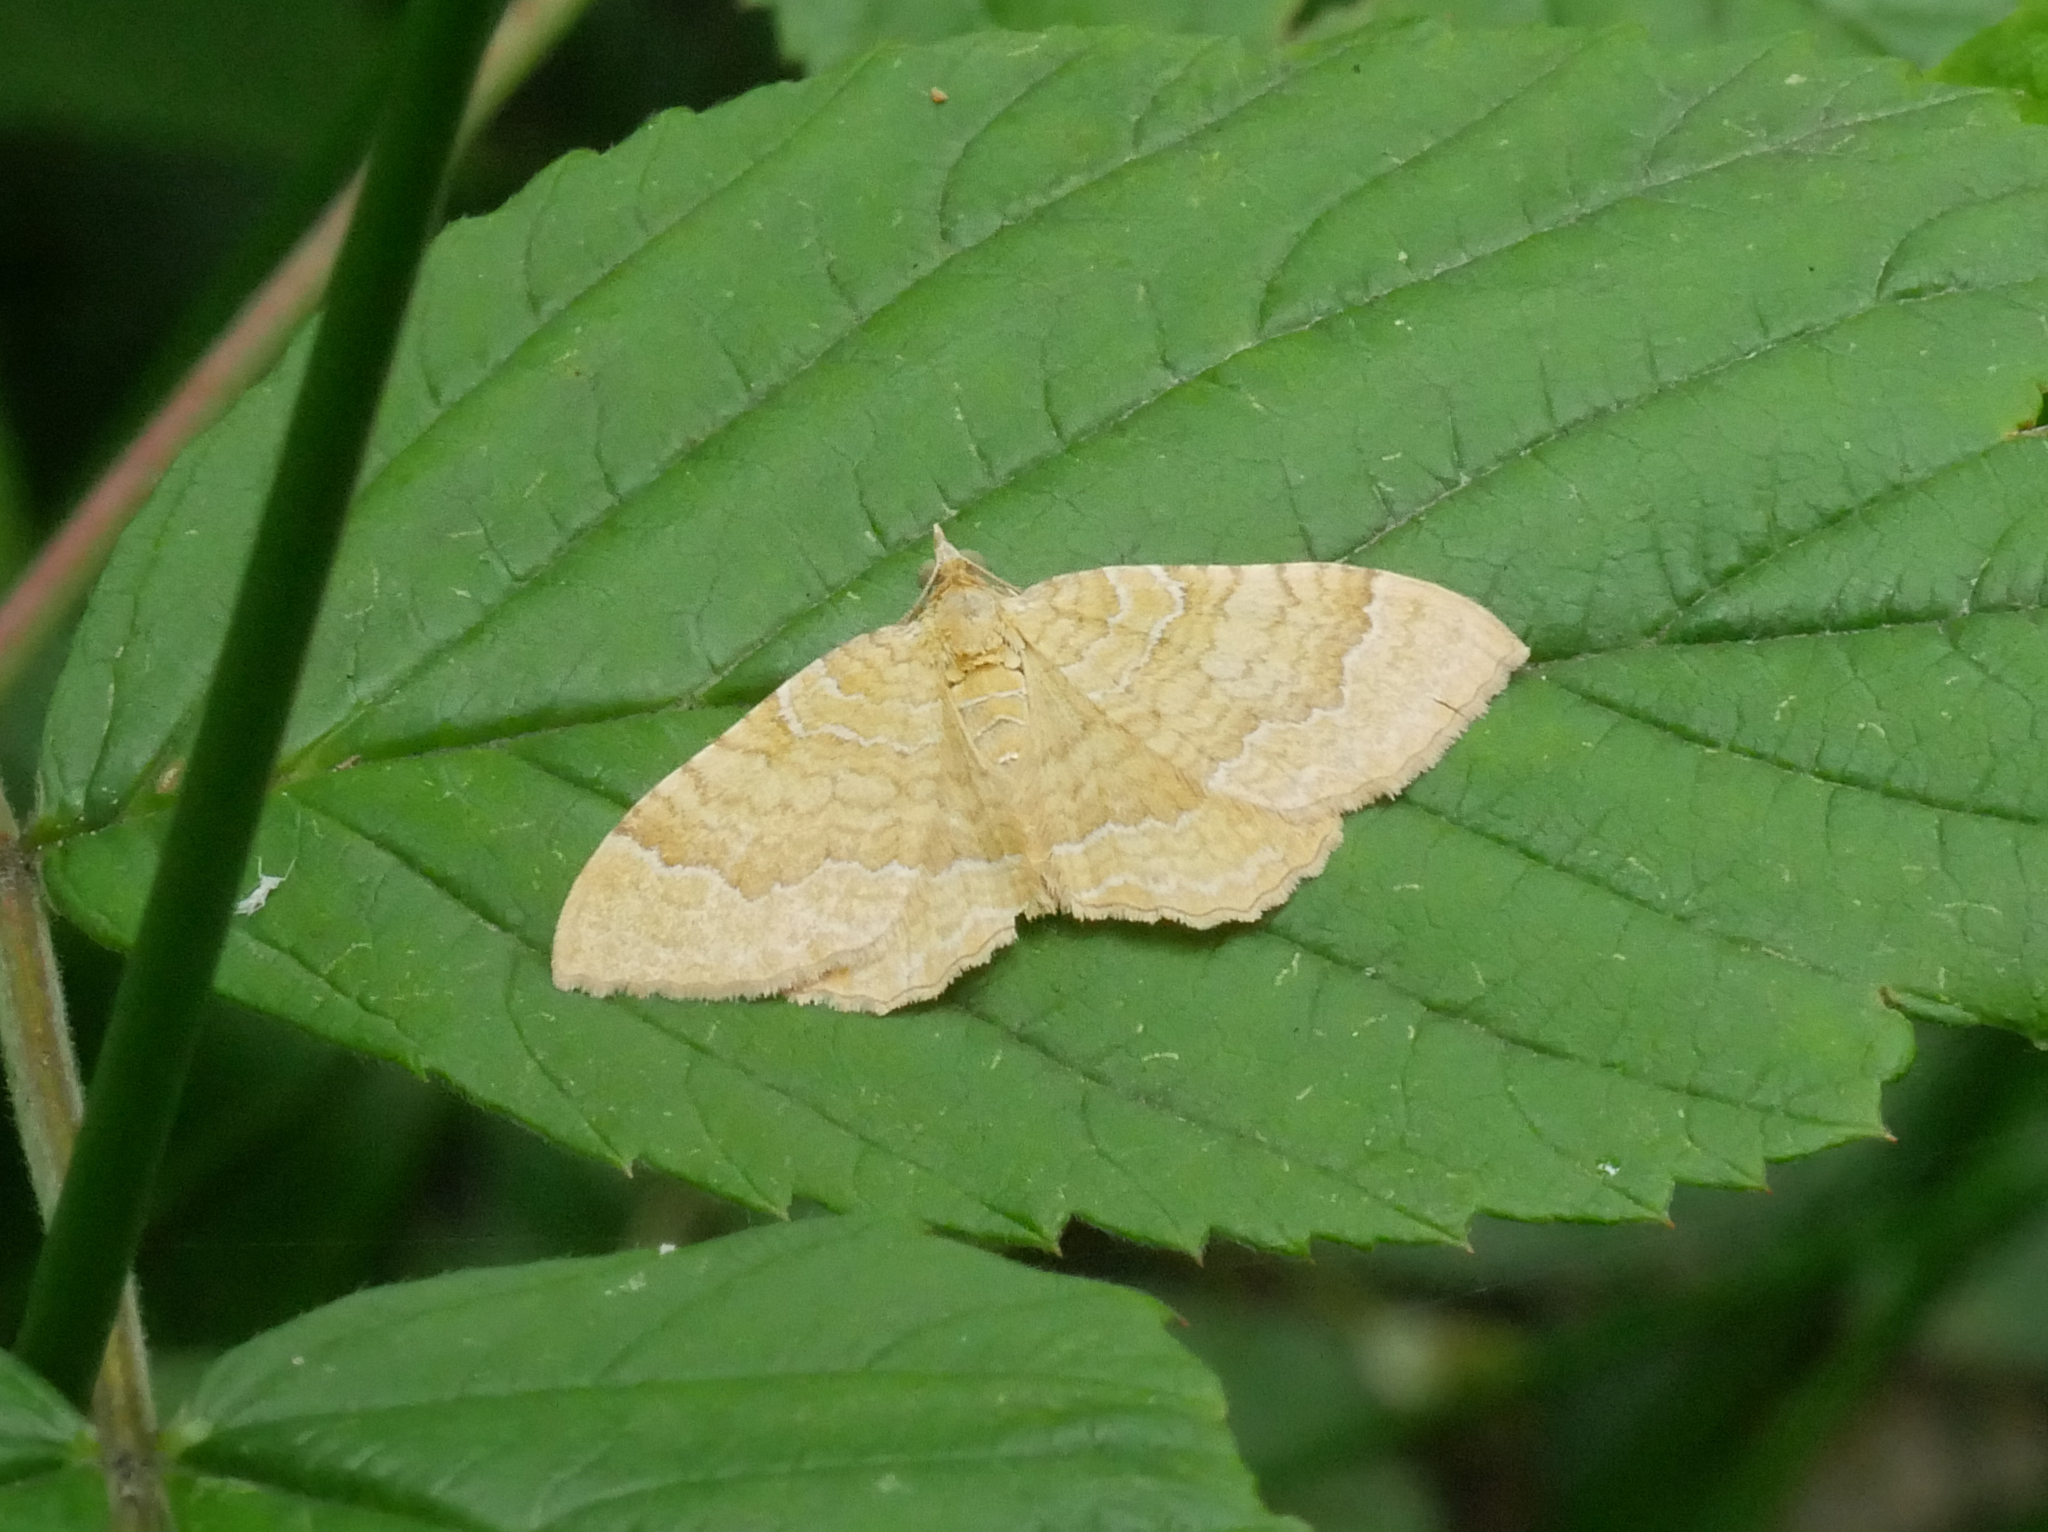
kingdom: Animalia
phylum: Arthropoda
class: Insecta
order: Lepidoptera
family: Geometridae
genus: Camptogramma
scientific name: Camptogramma bilineata
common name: Yellow shell
